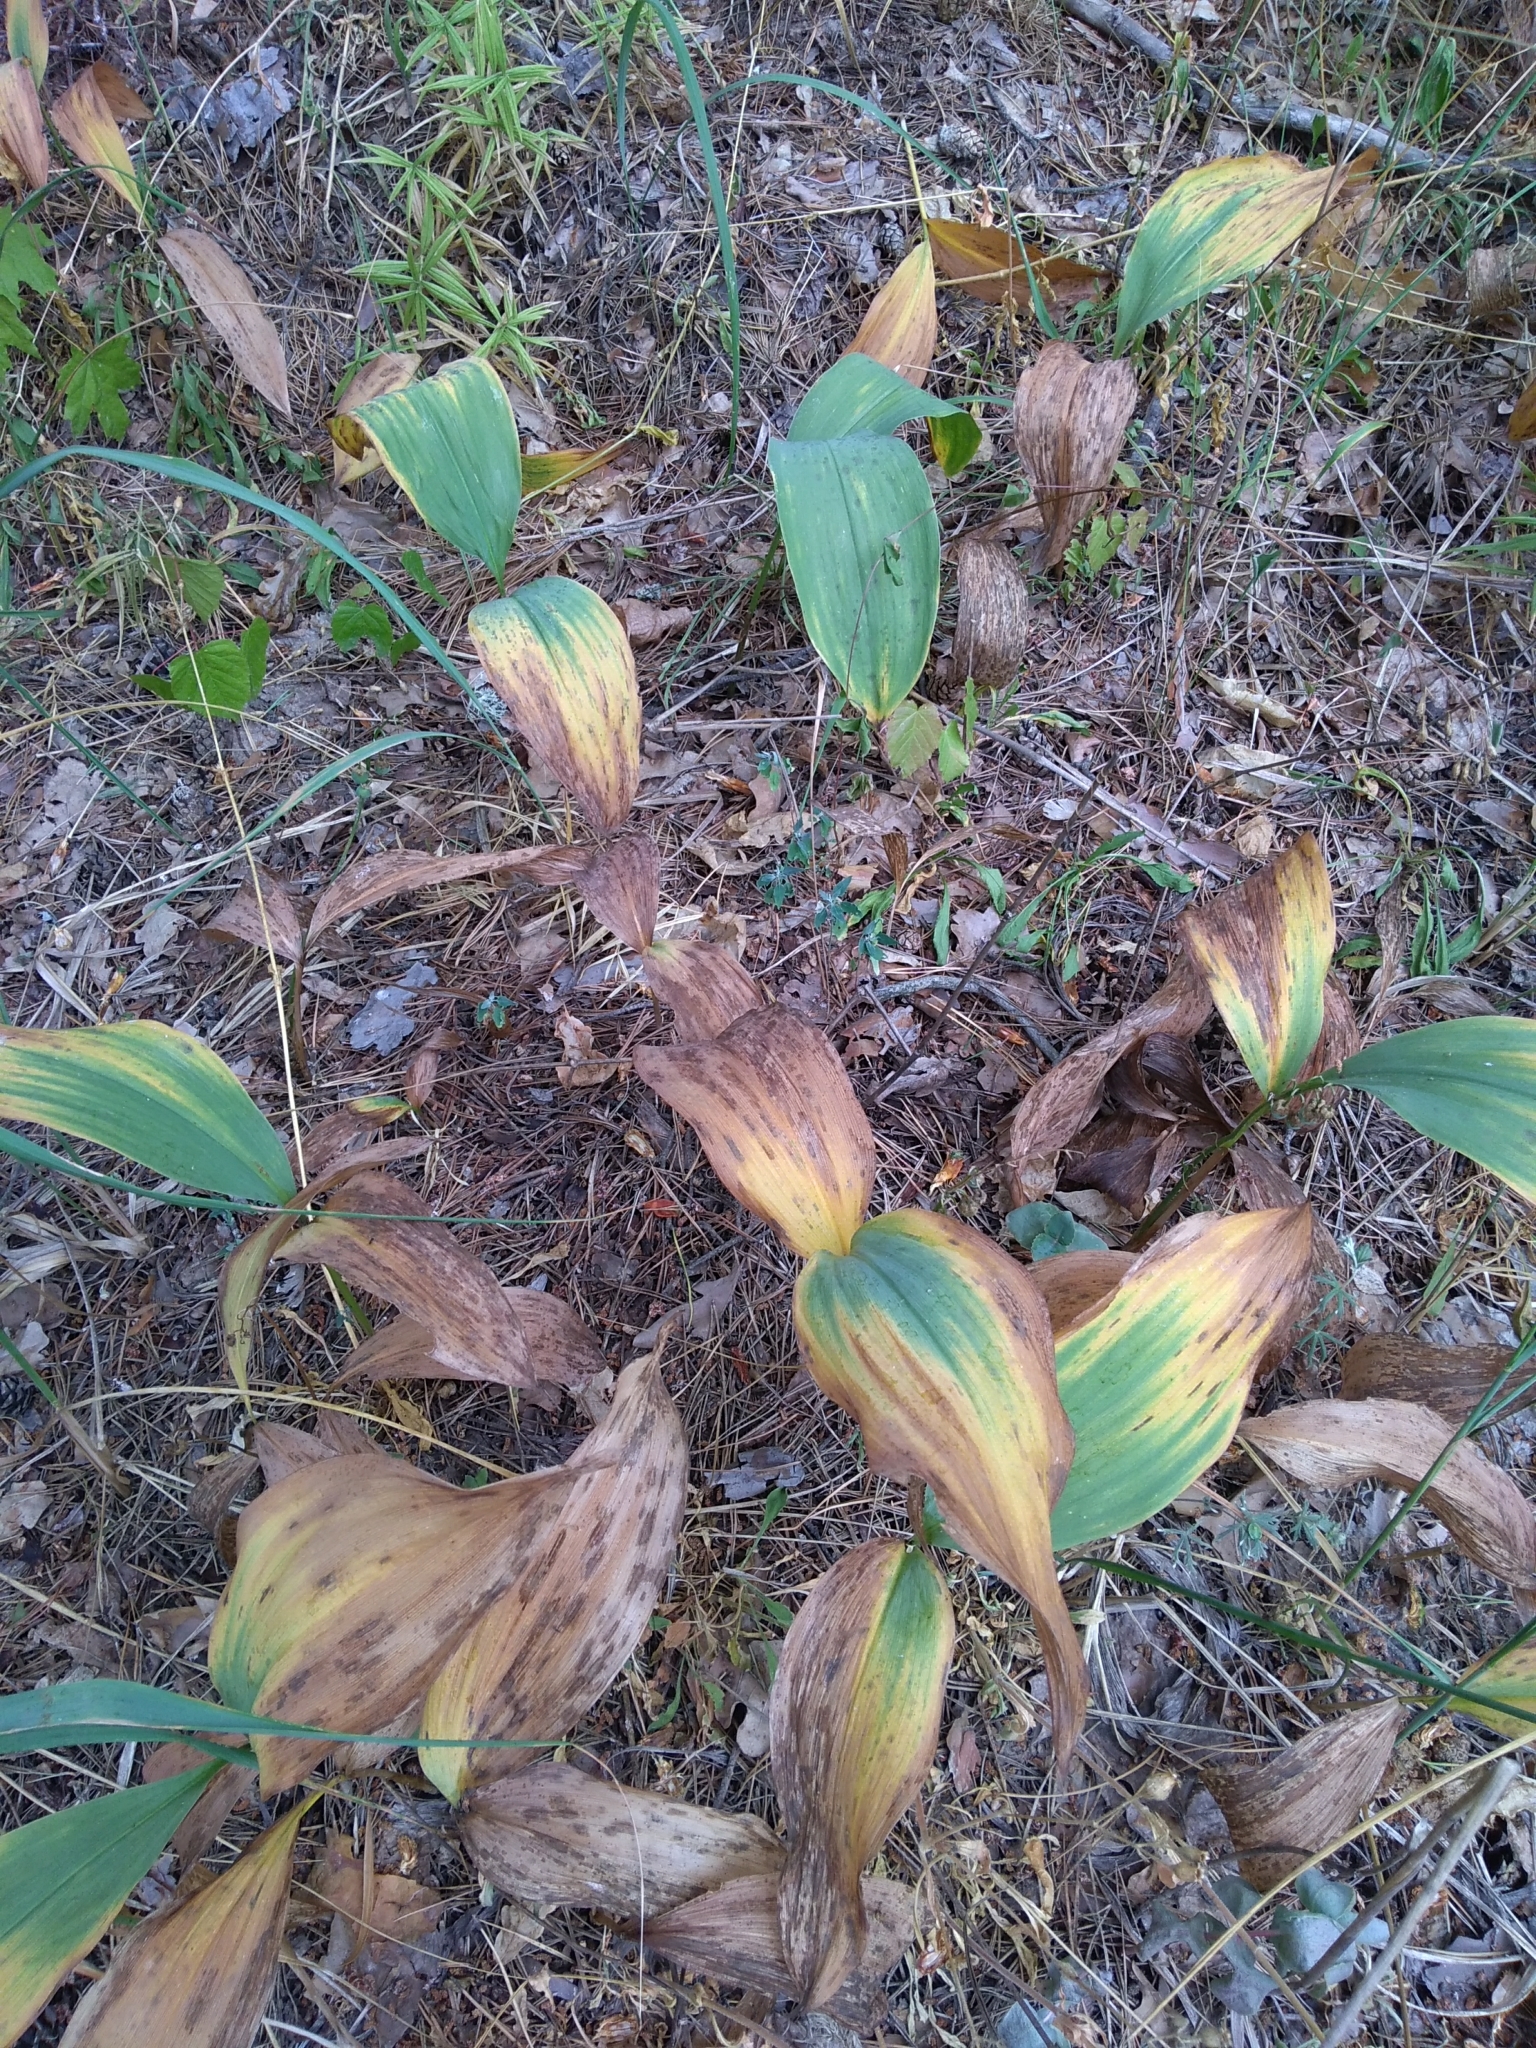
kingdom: Plantae
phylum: Tracheophyta
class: Liliopsida
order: Asparagales
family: Asparagaceae
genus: Convallaria
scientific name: Convallaria majalis
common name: Lily-of-the-valley
